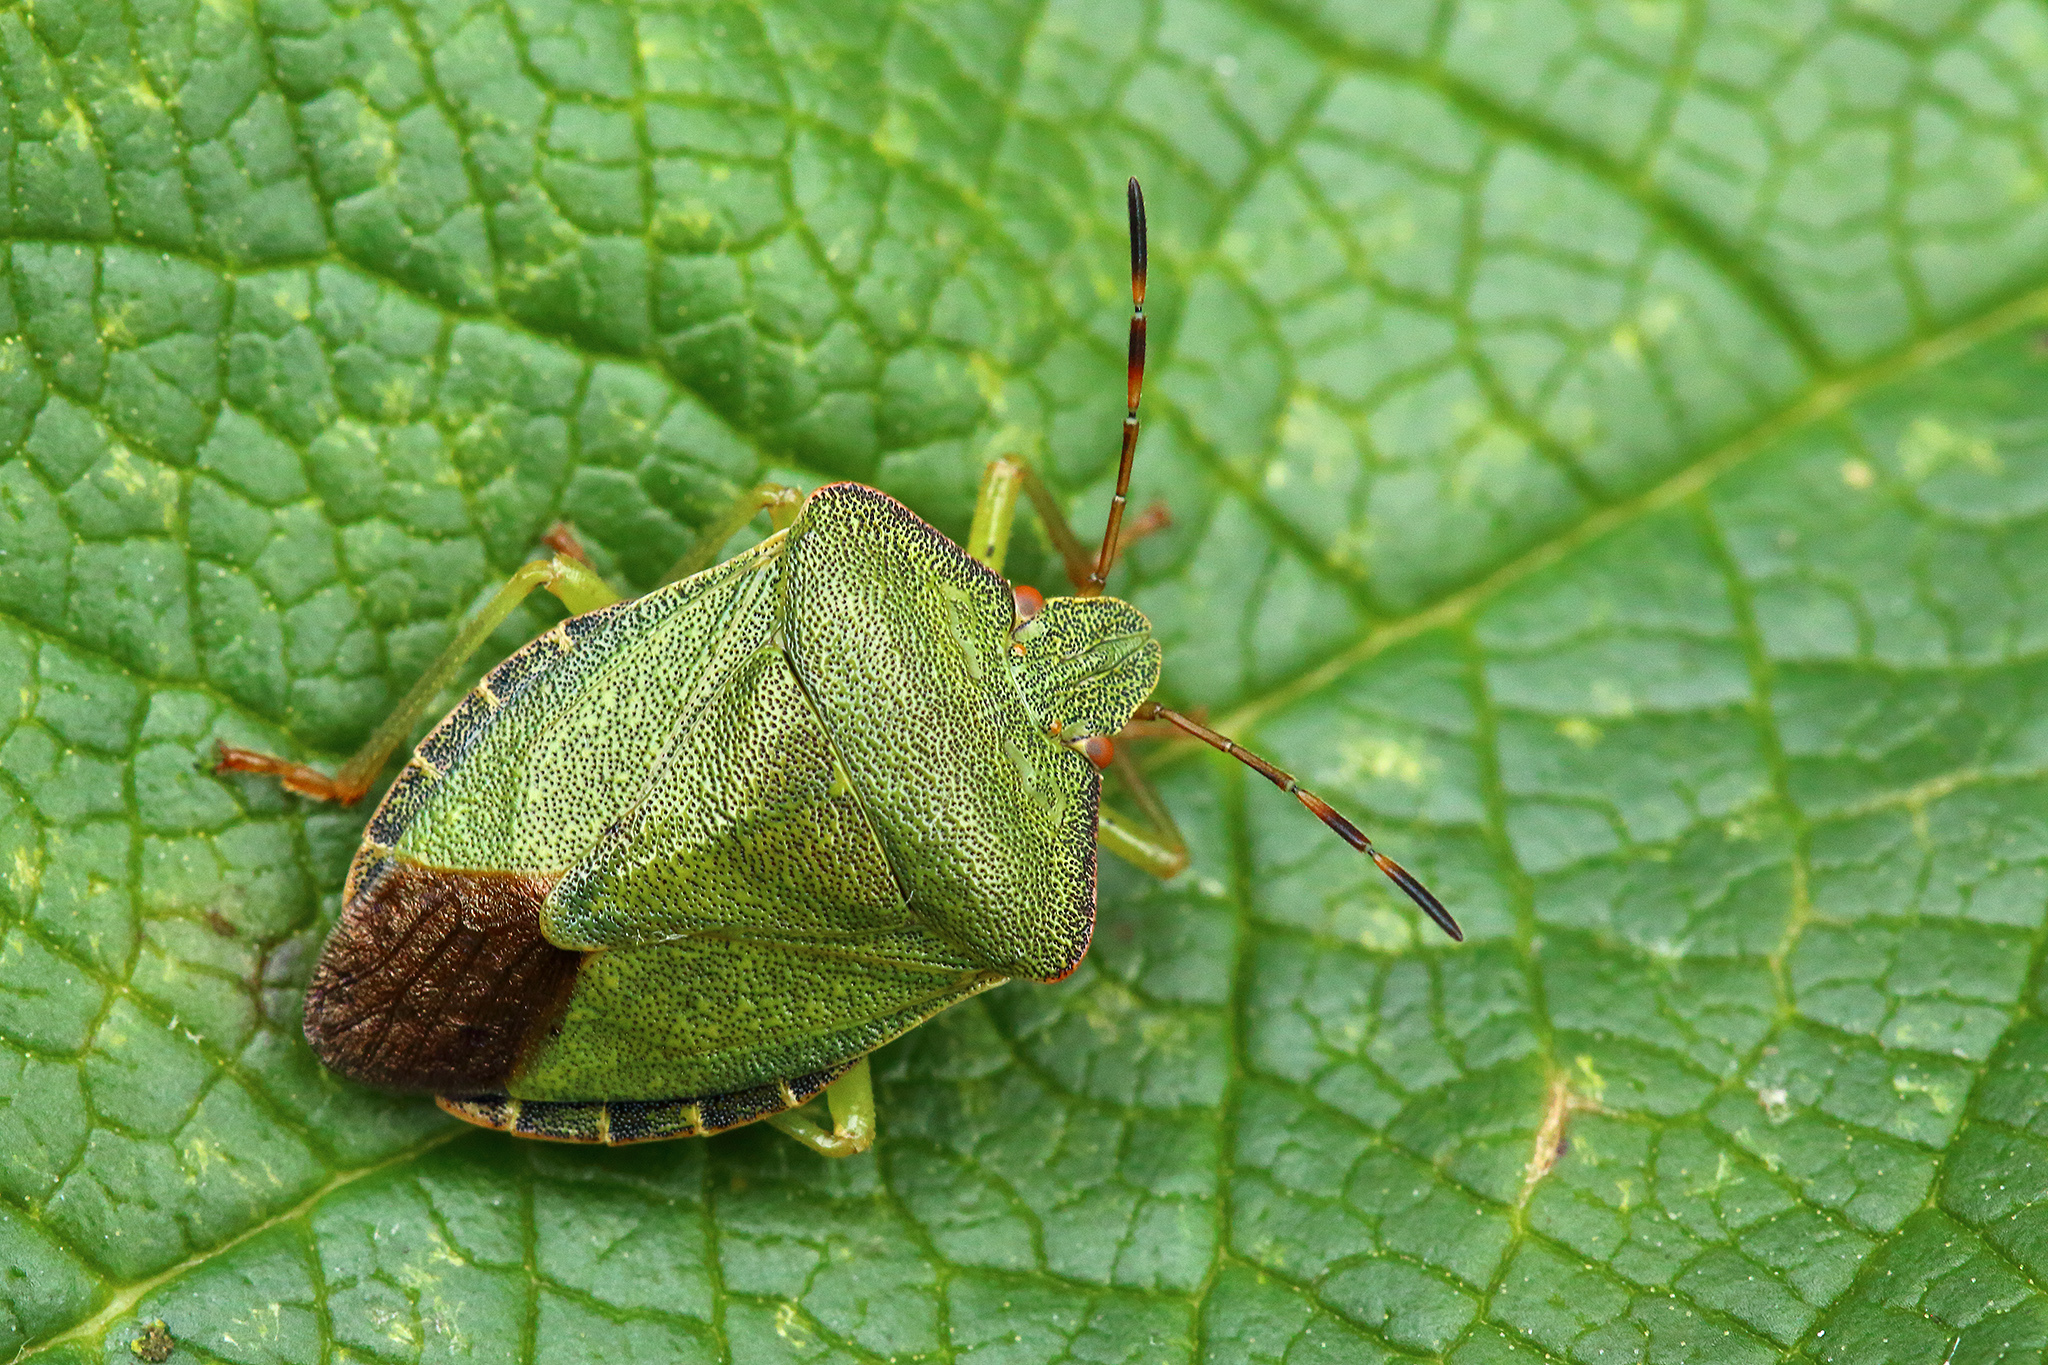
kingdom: Animalia
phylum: Arthropoda
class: Insecta
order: Hemiptera
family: Pentatomidae
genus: Palomena
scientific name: Palomena prasina
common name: Green shieldbug
